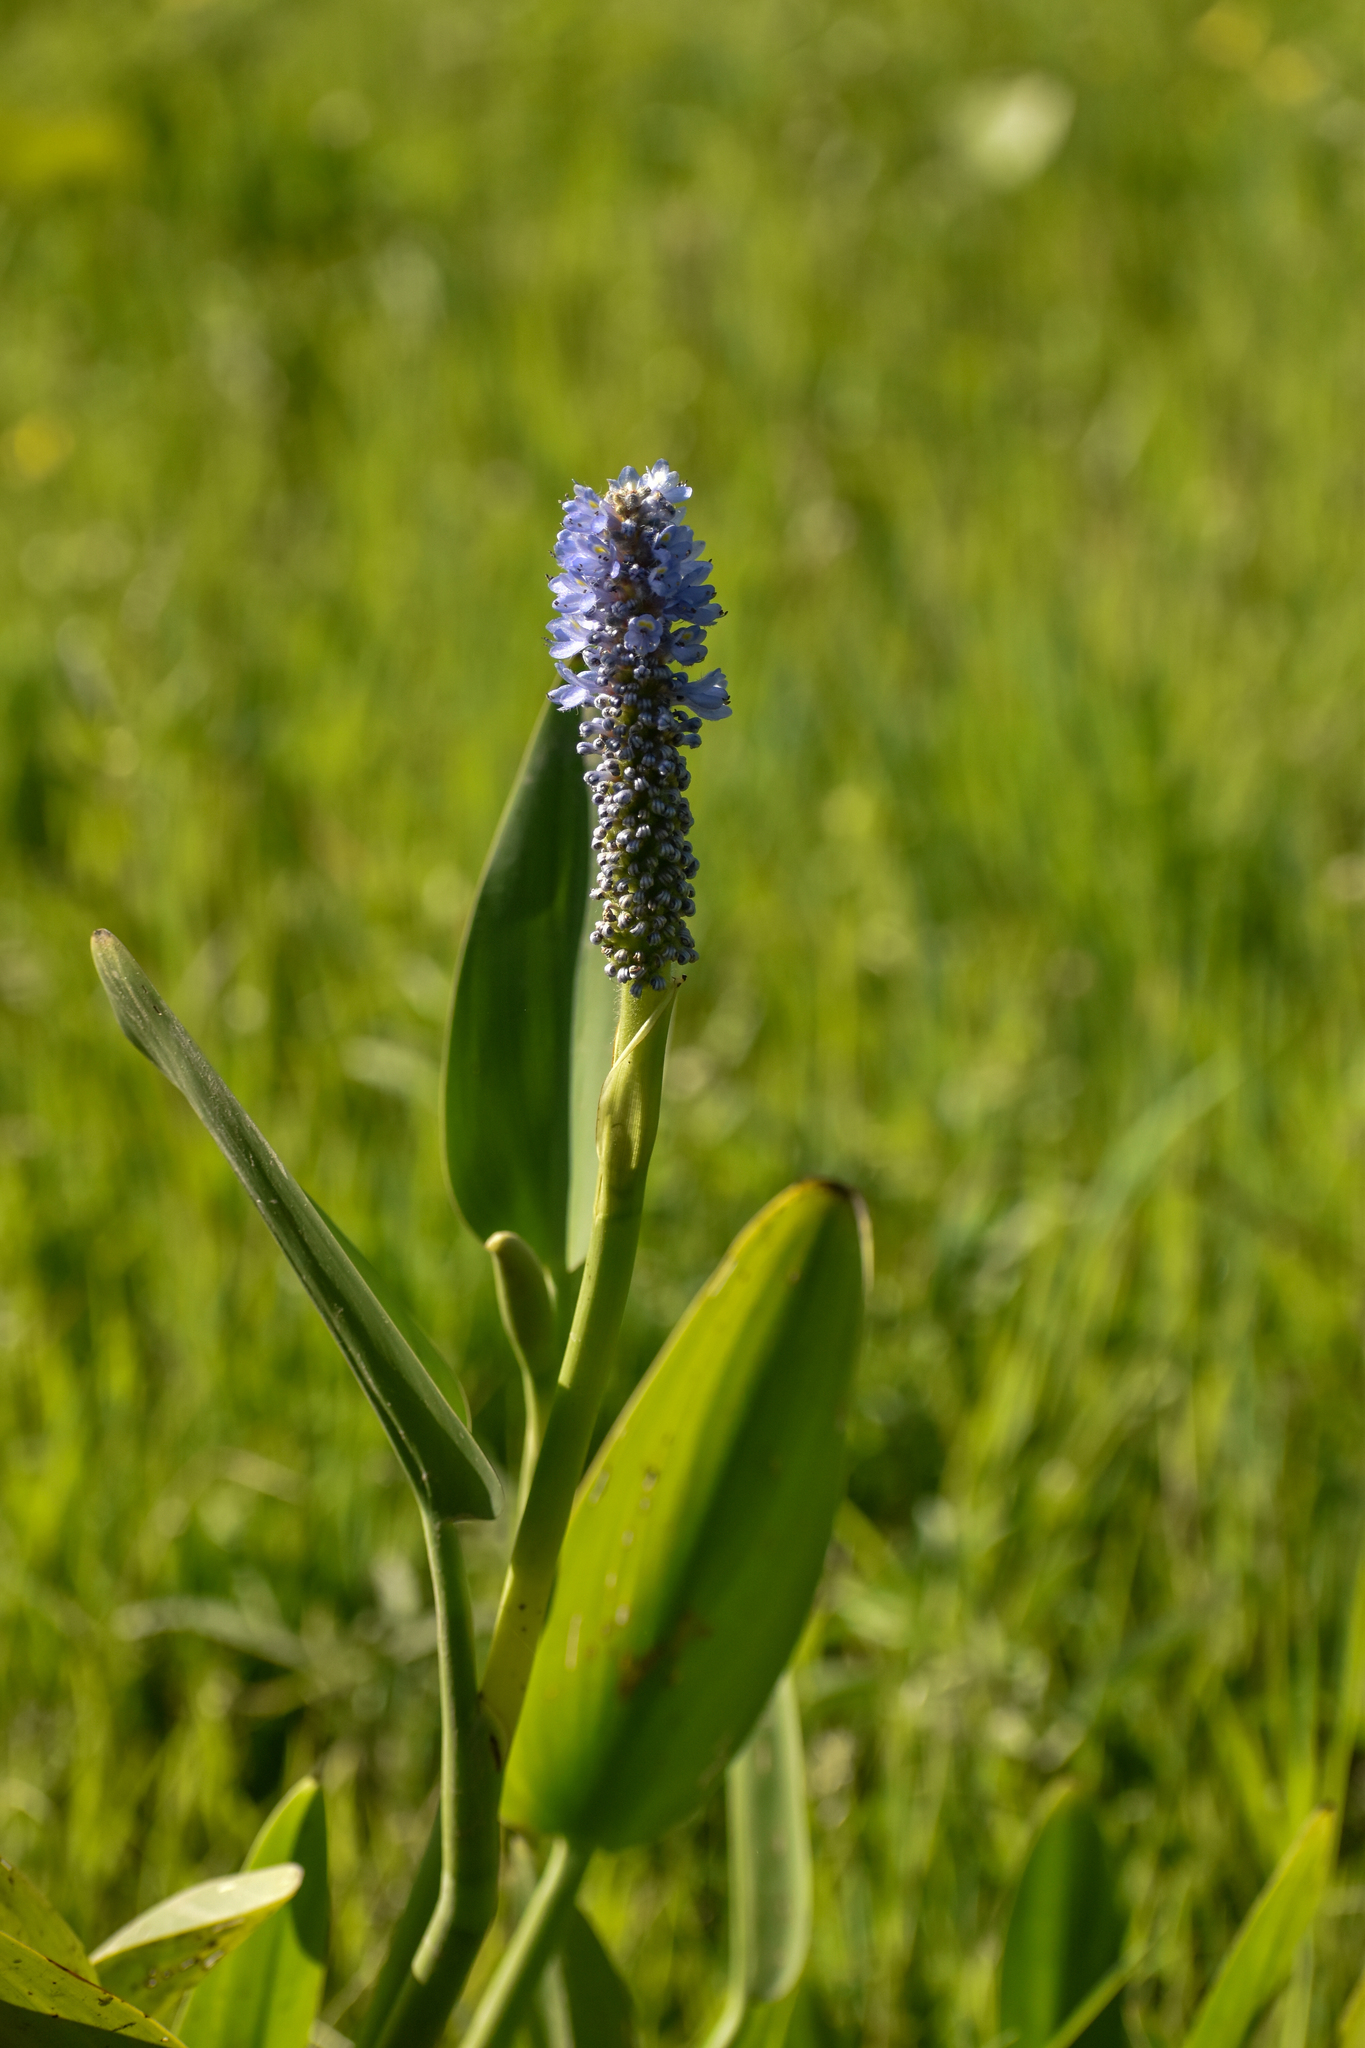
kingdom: Plantae
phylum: Tracheophyta
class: Liliopsida
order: Commelinales
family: Pontederiaceae
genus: Pontederia
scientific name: Pontederia cordata
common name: Pickerelweed
